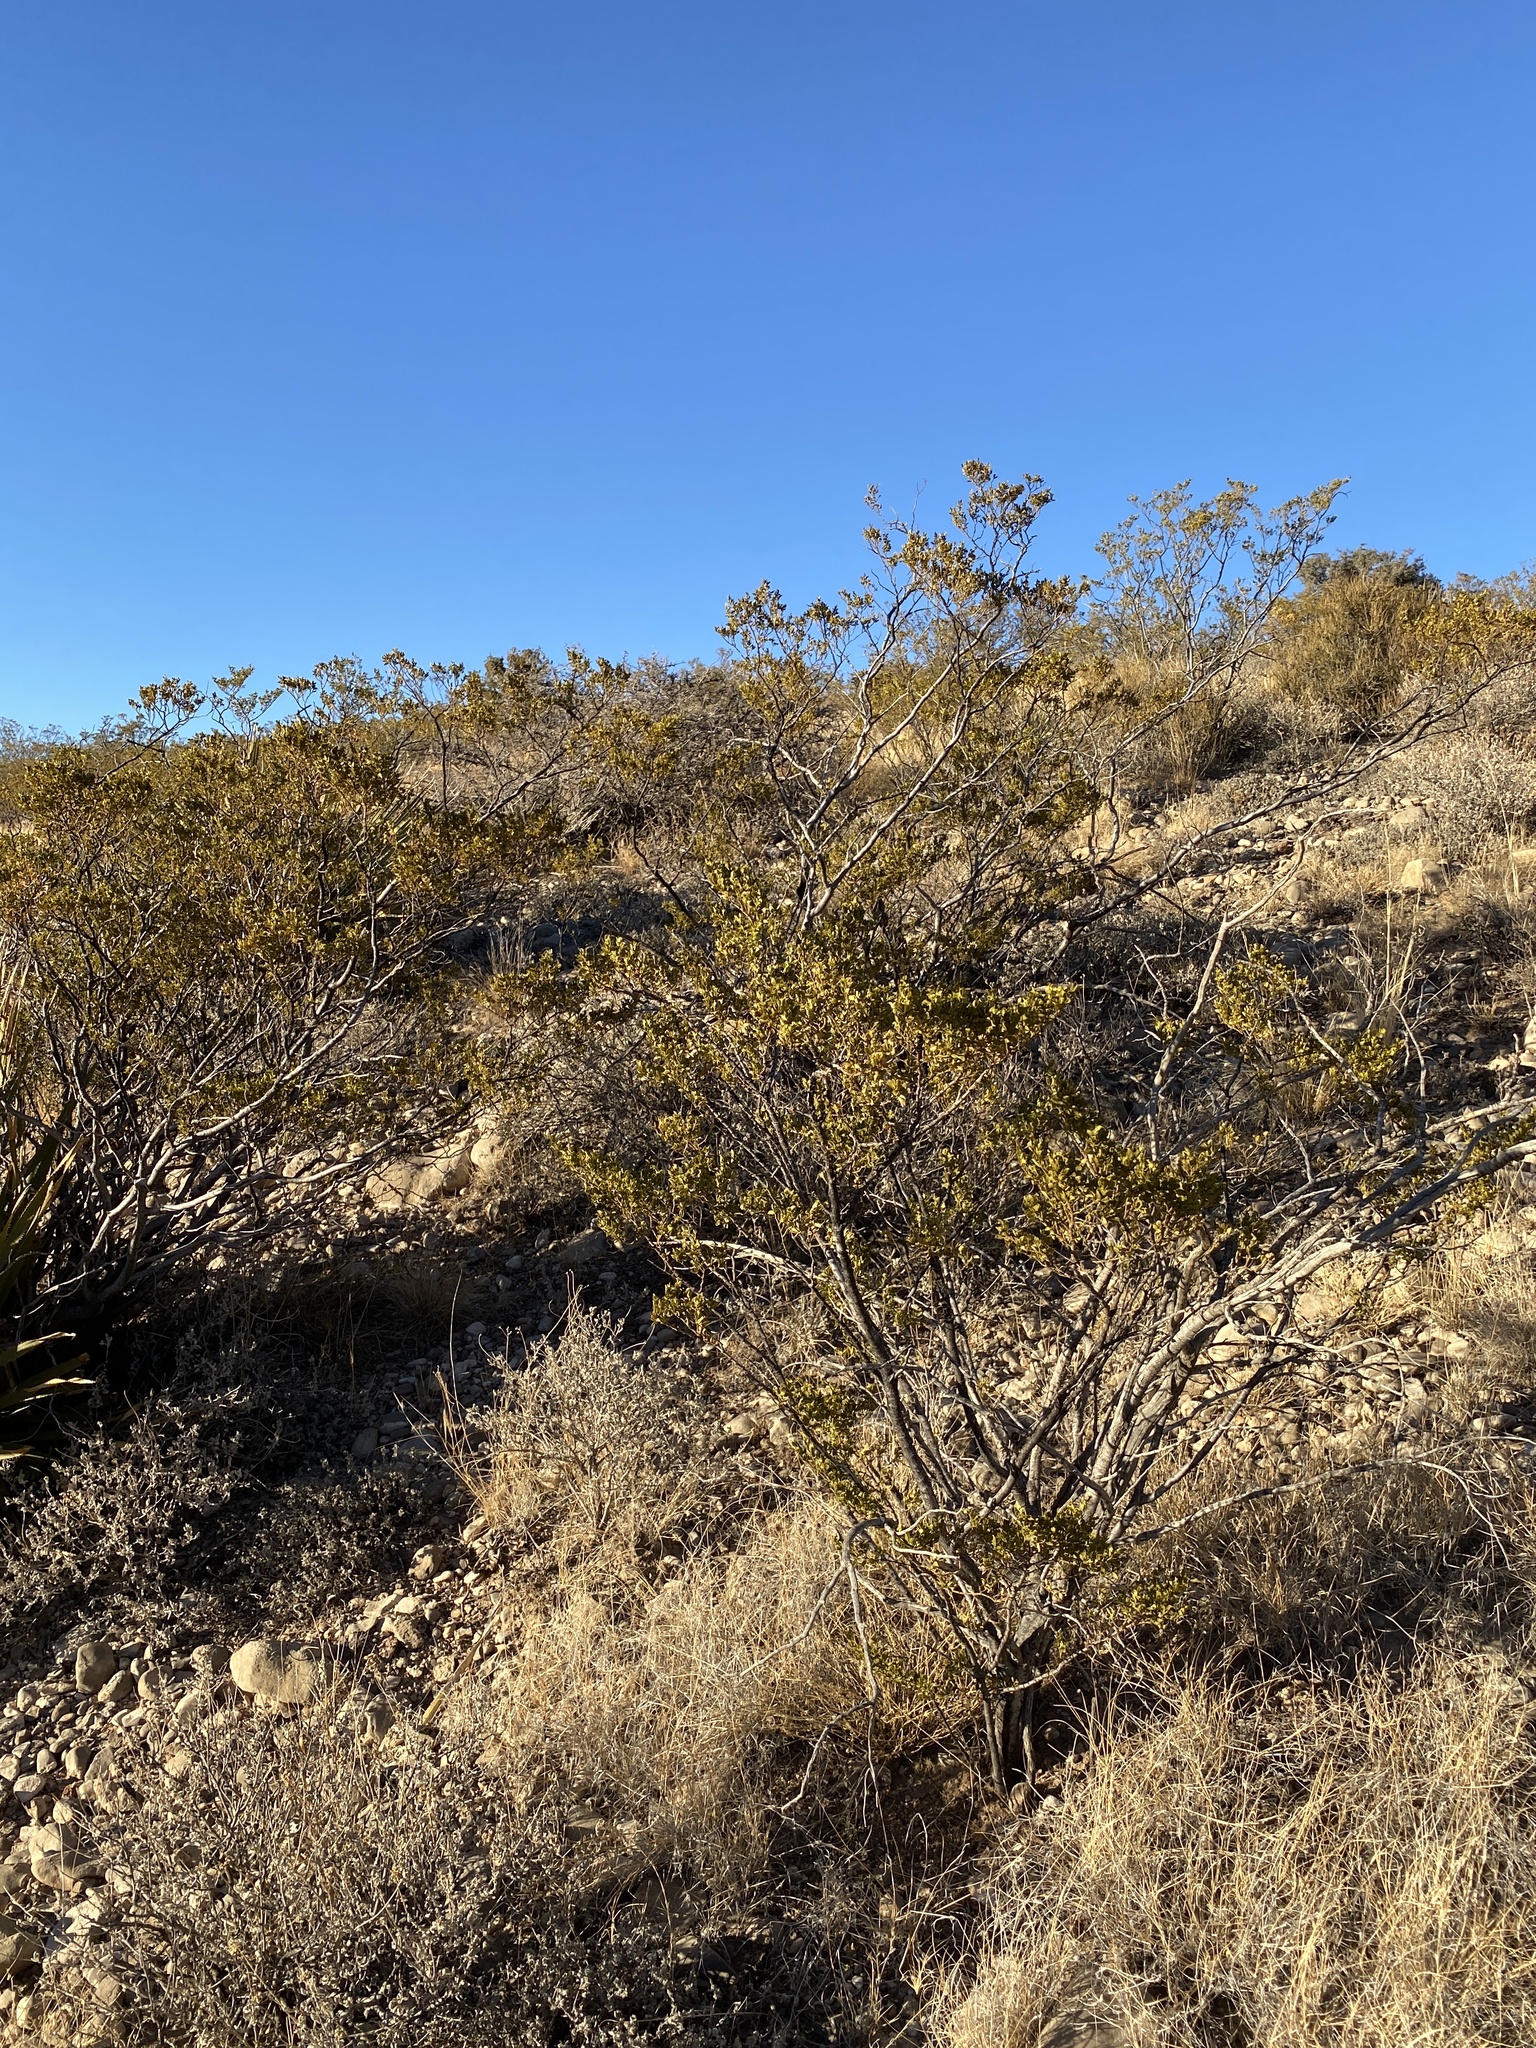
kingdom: Plantae
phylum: Tracheophyta
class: Magnoliopsida
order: Zygophyllales
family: Zygophyllaceae
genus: Larrea
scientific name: Larrea tridentata
